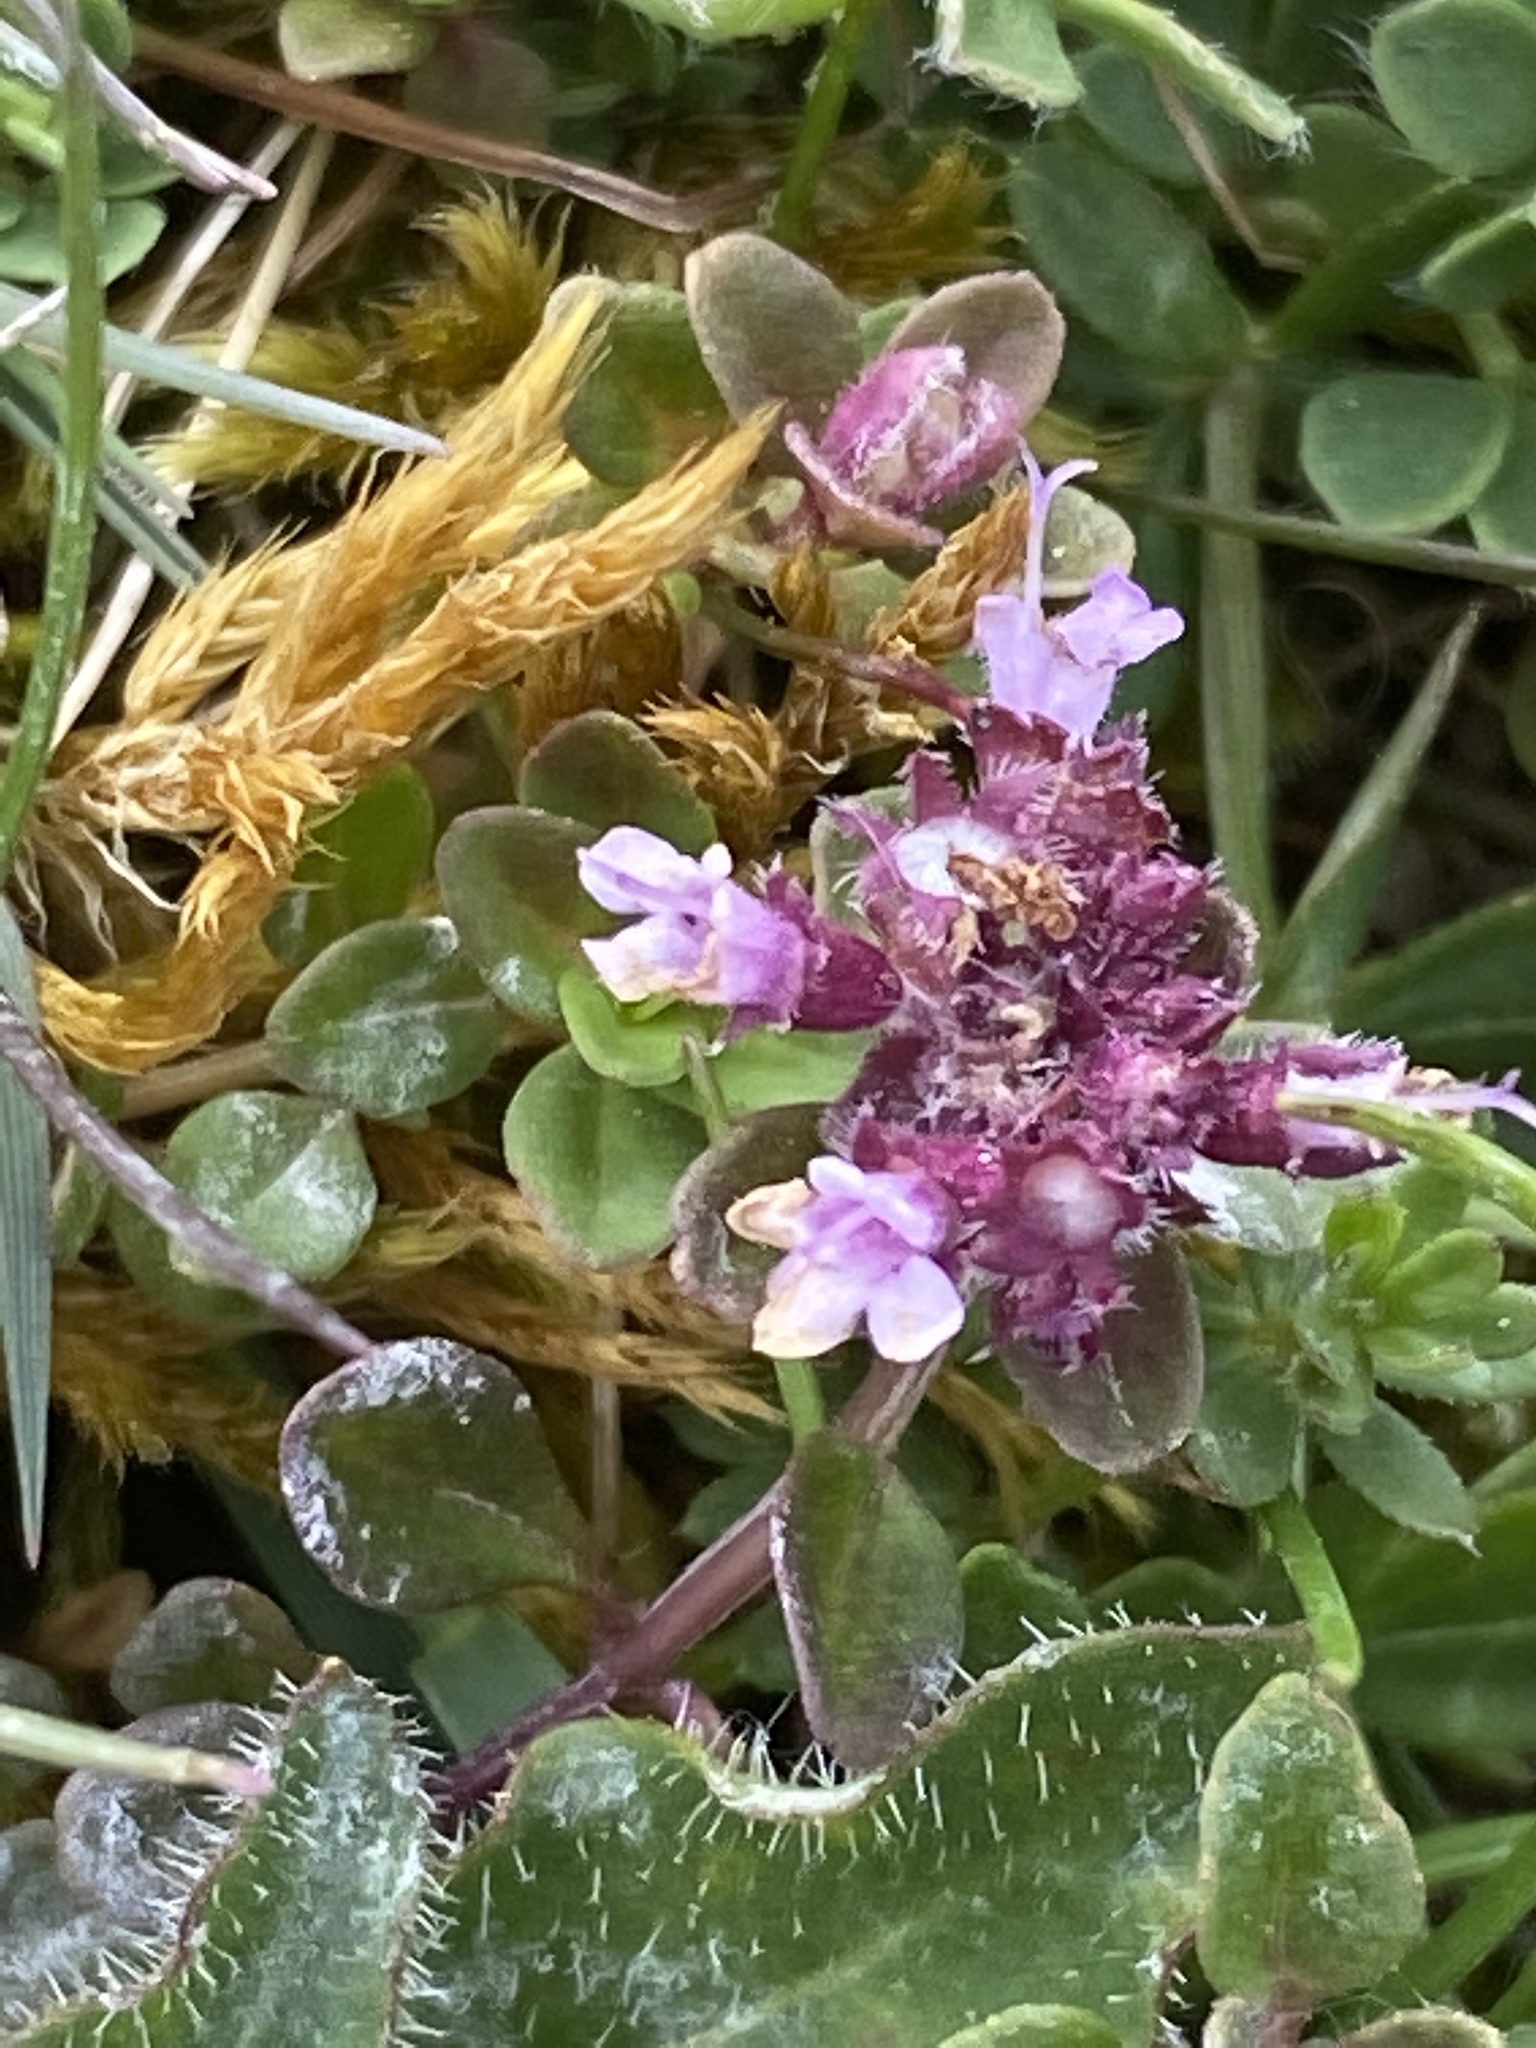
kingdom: Plantae
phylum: Tracheophyta
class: Magnoliopsida
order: Lamiales
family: Lamiaceae
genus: Thymus
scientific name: Thymus praecox
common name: Wild thyme
